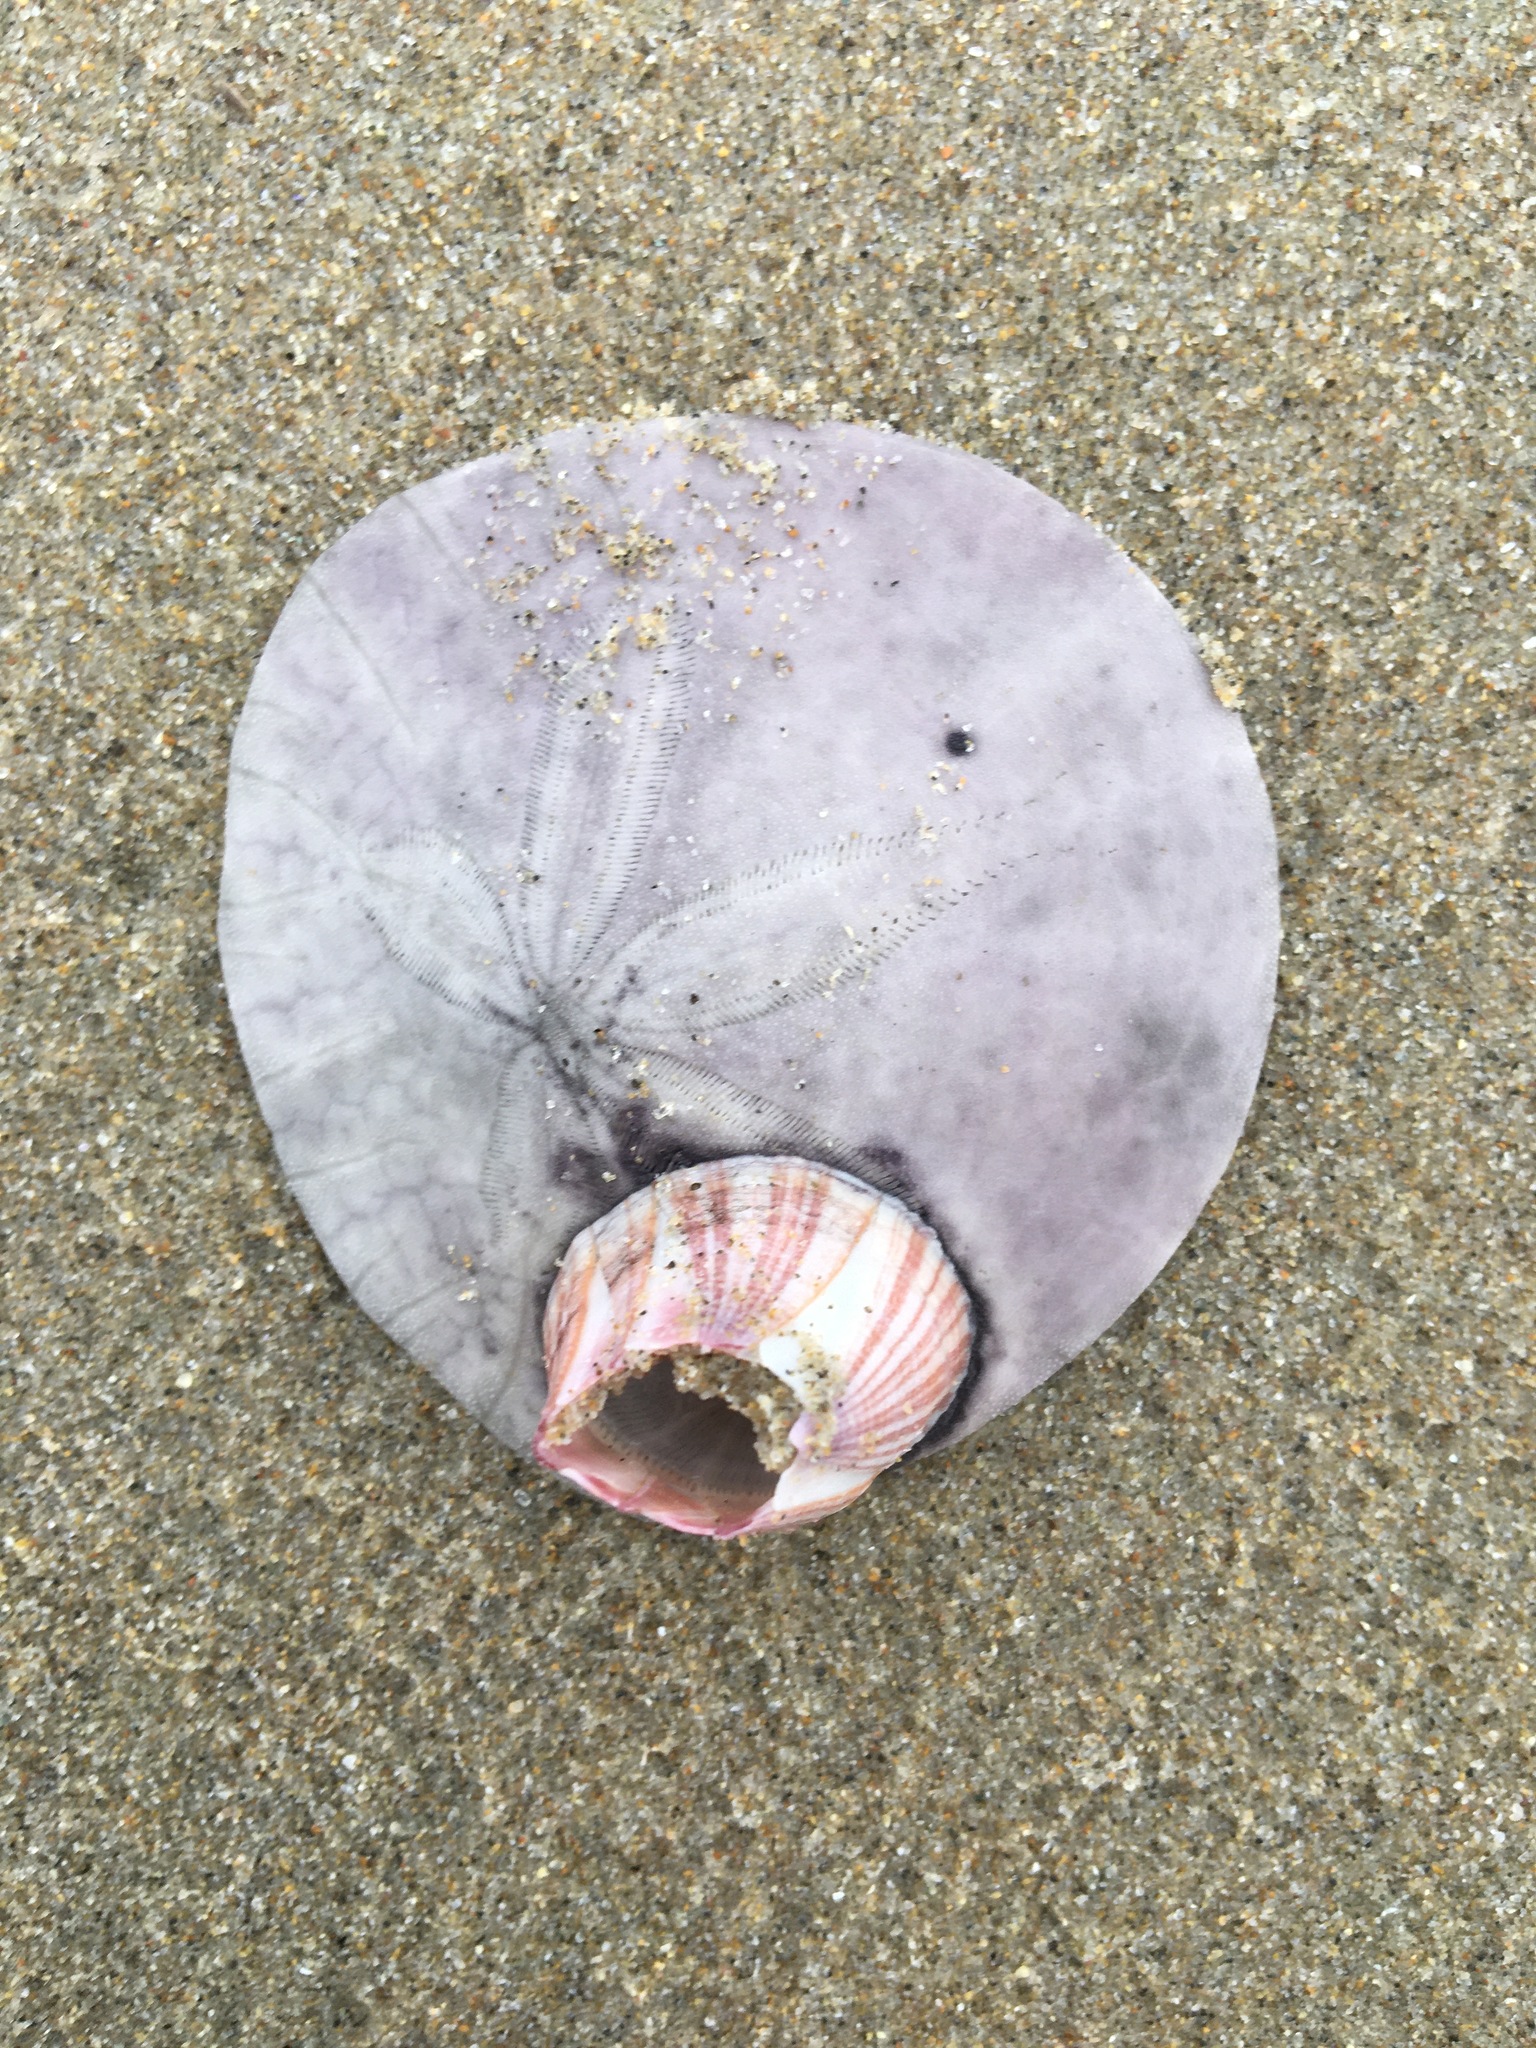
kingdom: Animalia
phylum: Arthropoda
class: Maxillopoda
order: Sessilia
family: Balanidae
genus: Paraconcavus
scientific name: Paraconcavus pacificus
